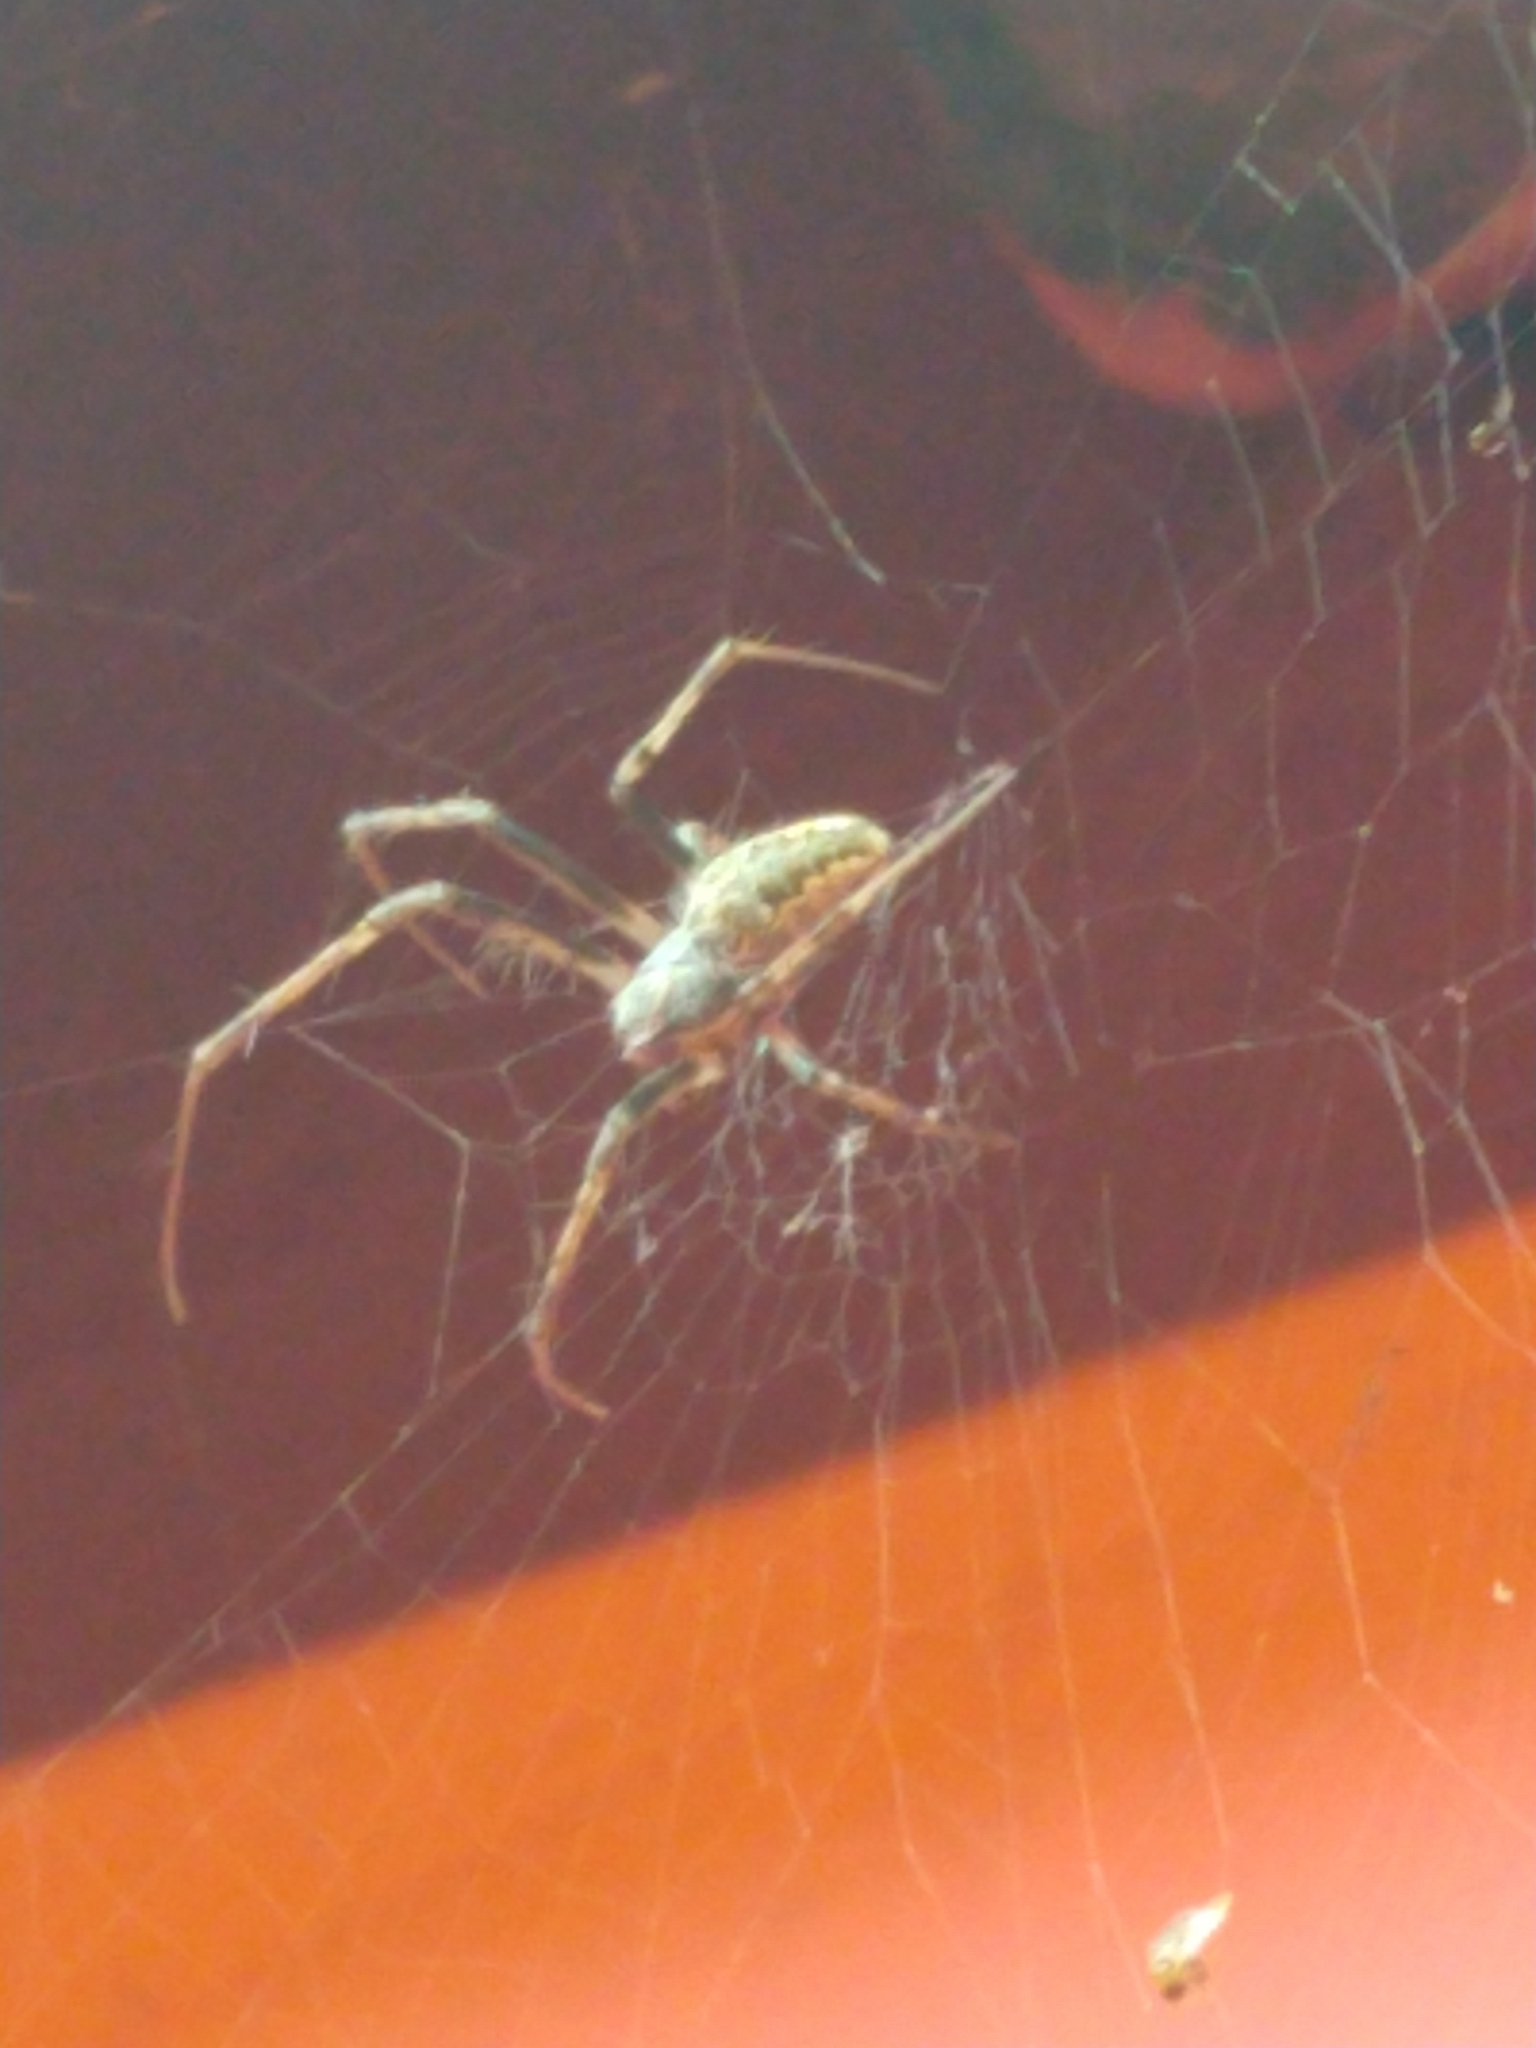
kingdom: Animalia
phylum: Arthropoda
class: Arachnida
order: Araneae
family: Araneidae
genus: Metepeira
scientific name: Metepeira
